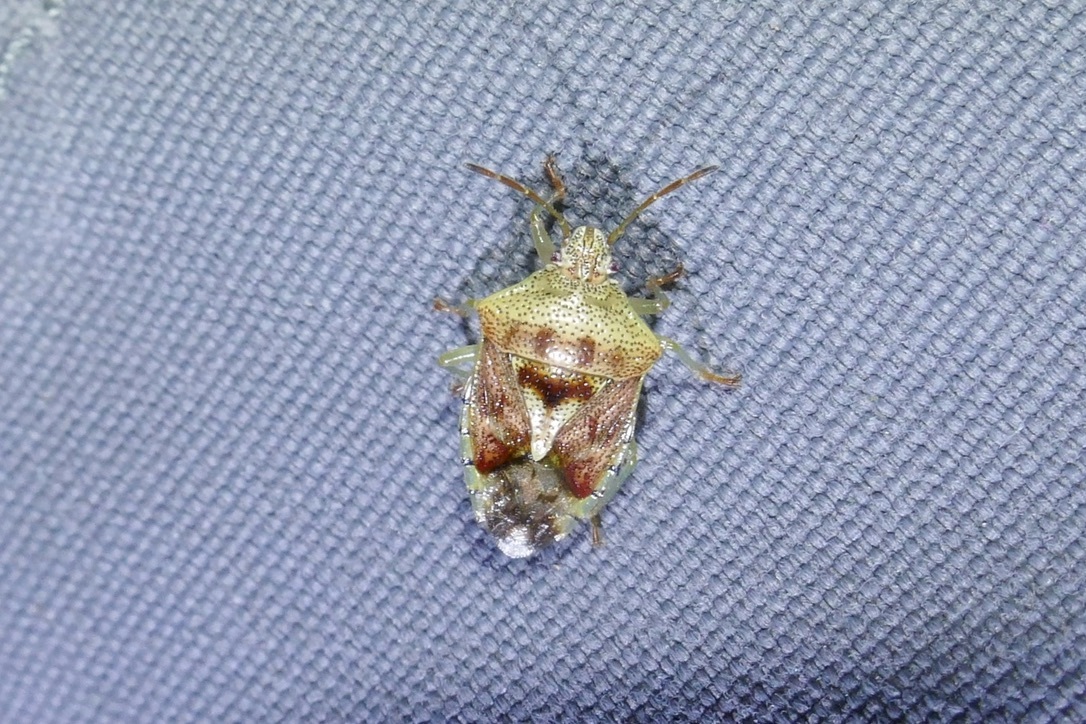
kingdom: Animalia
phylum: Arthropoda
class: Insecta
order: Hemiptera
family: Acanthosomatidae
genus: Elasmucha
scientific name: Elasmucha grisea
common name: Parent bug
